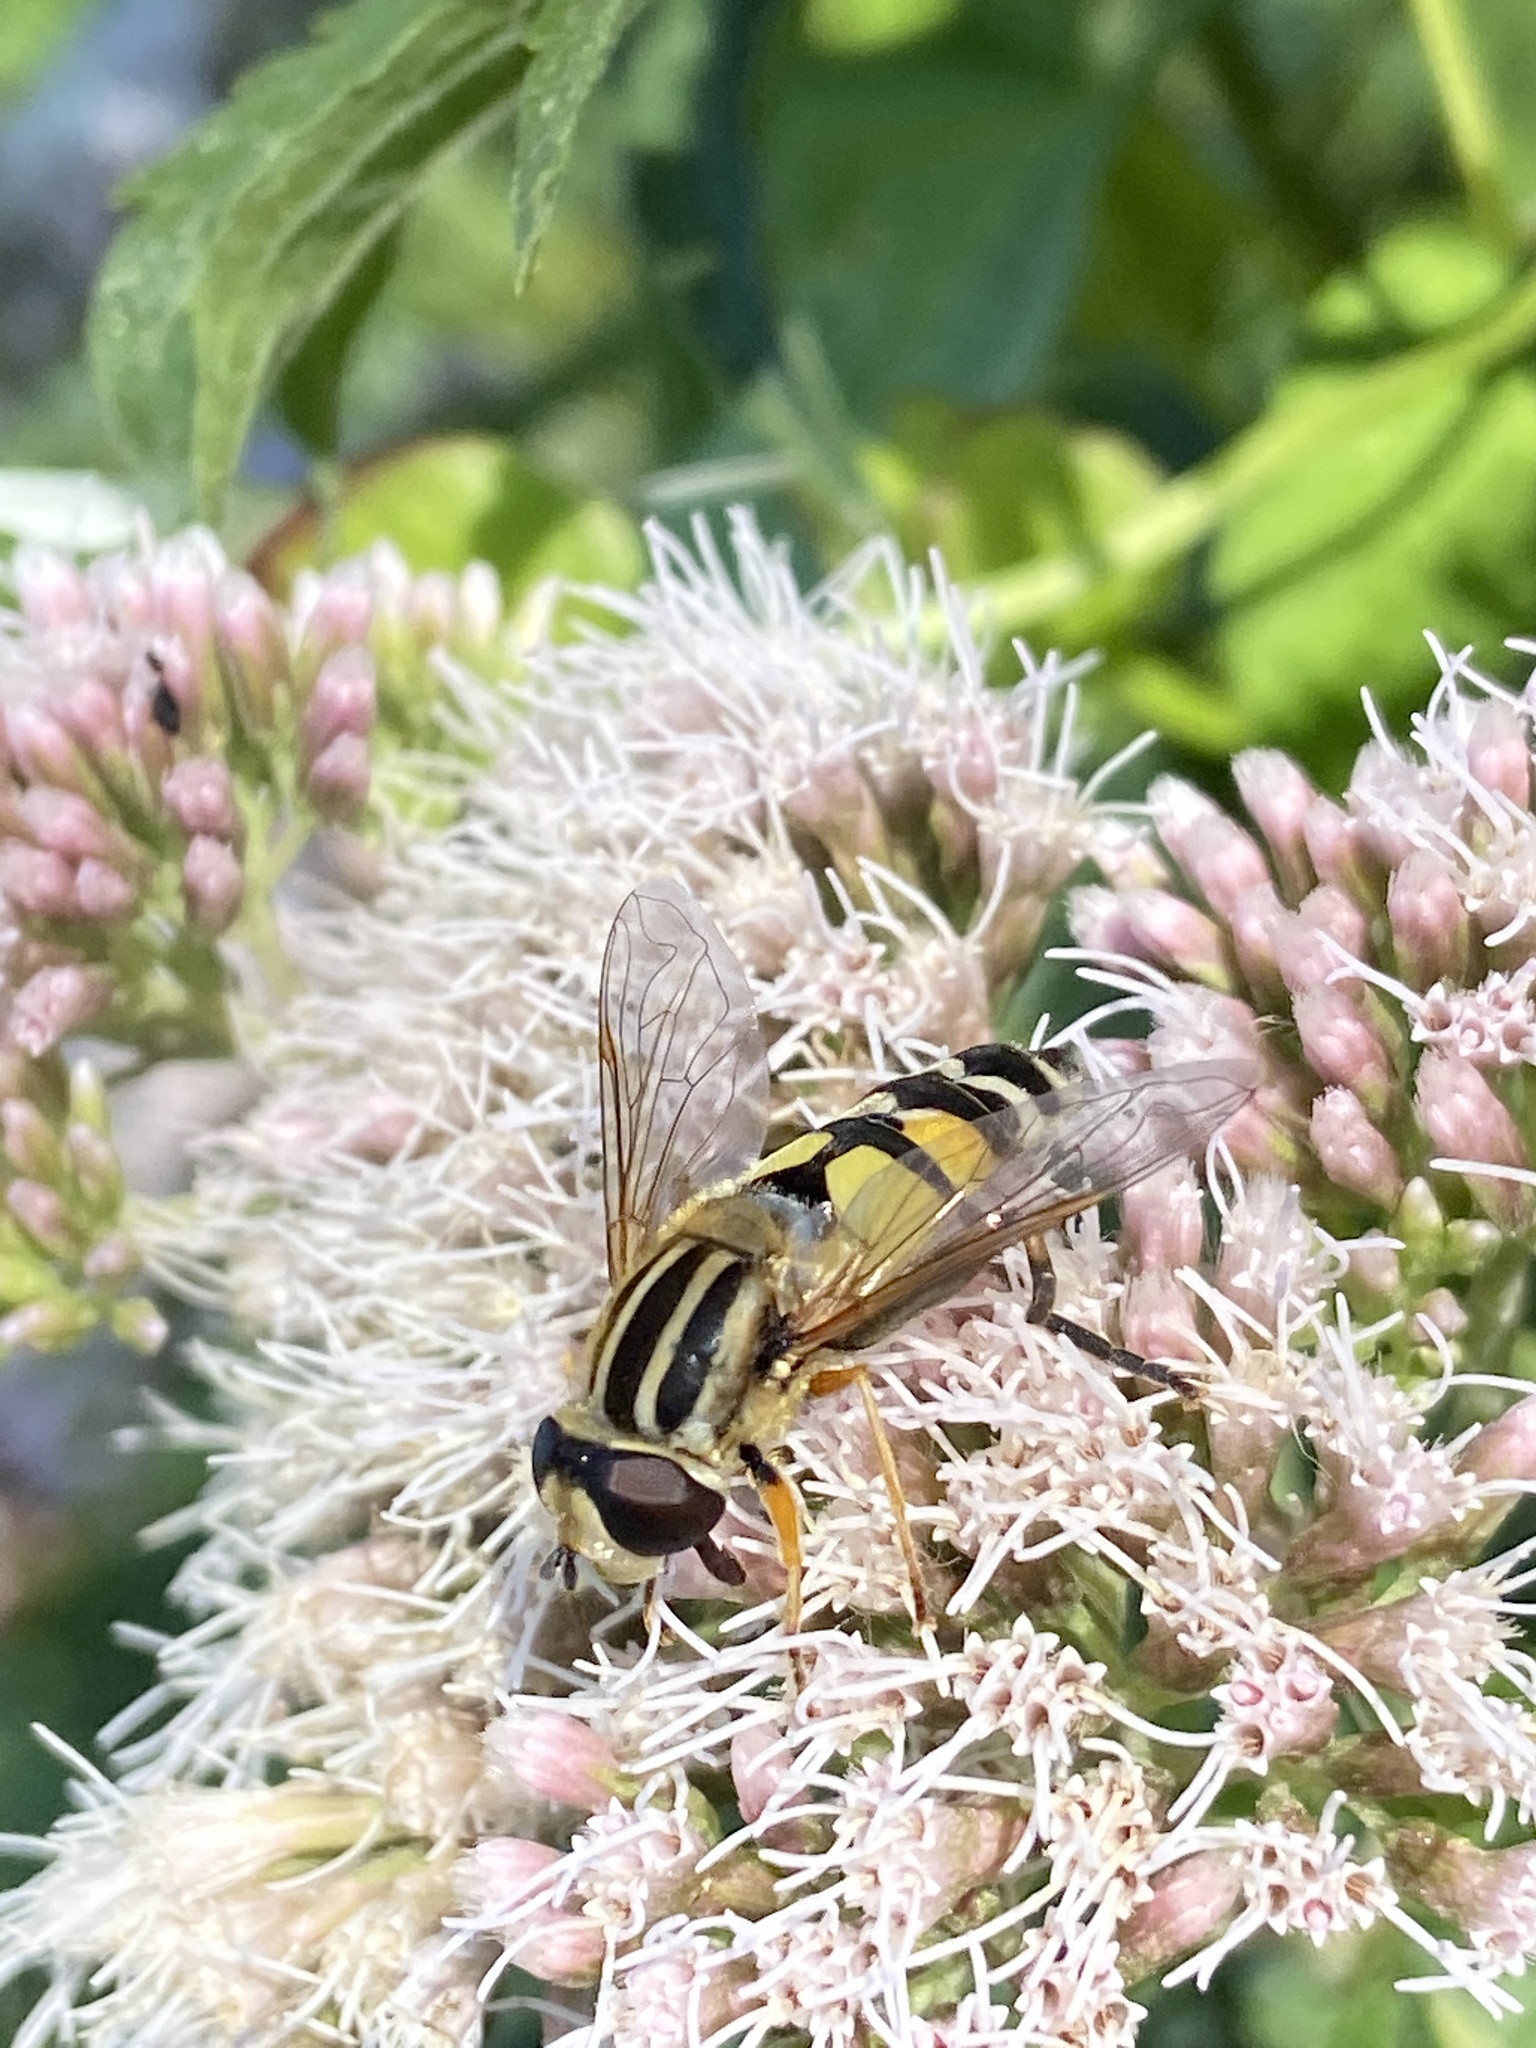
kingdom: Animalia
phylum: Arthropoda
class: Insecta
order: Diptera
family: Syrphidae
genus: Helophilus
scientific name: Helophilus trivittatus
